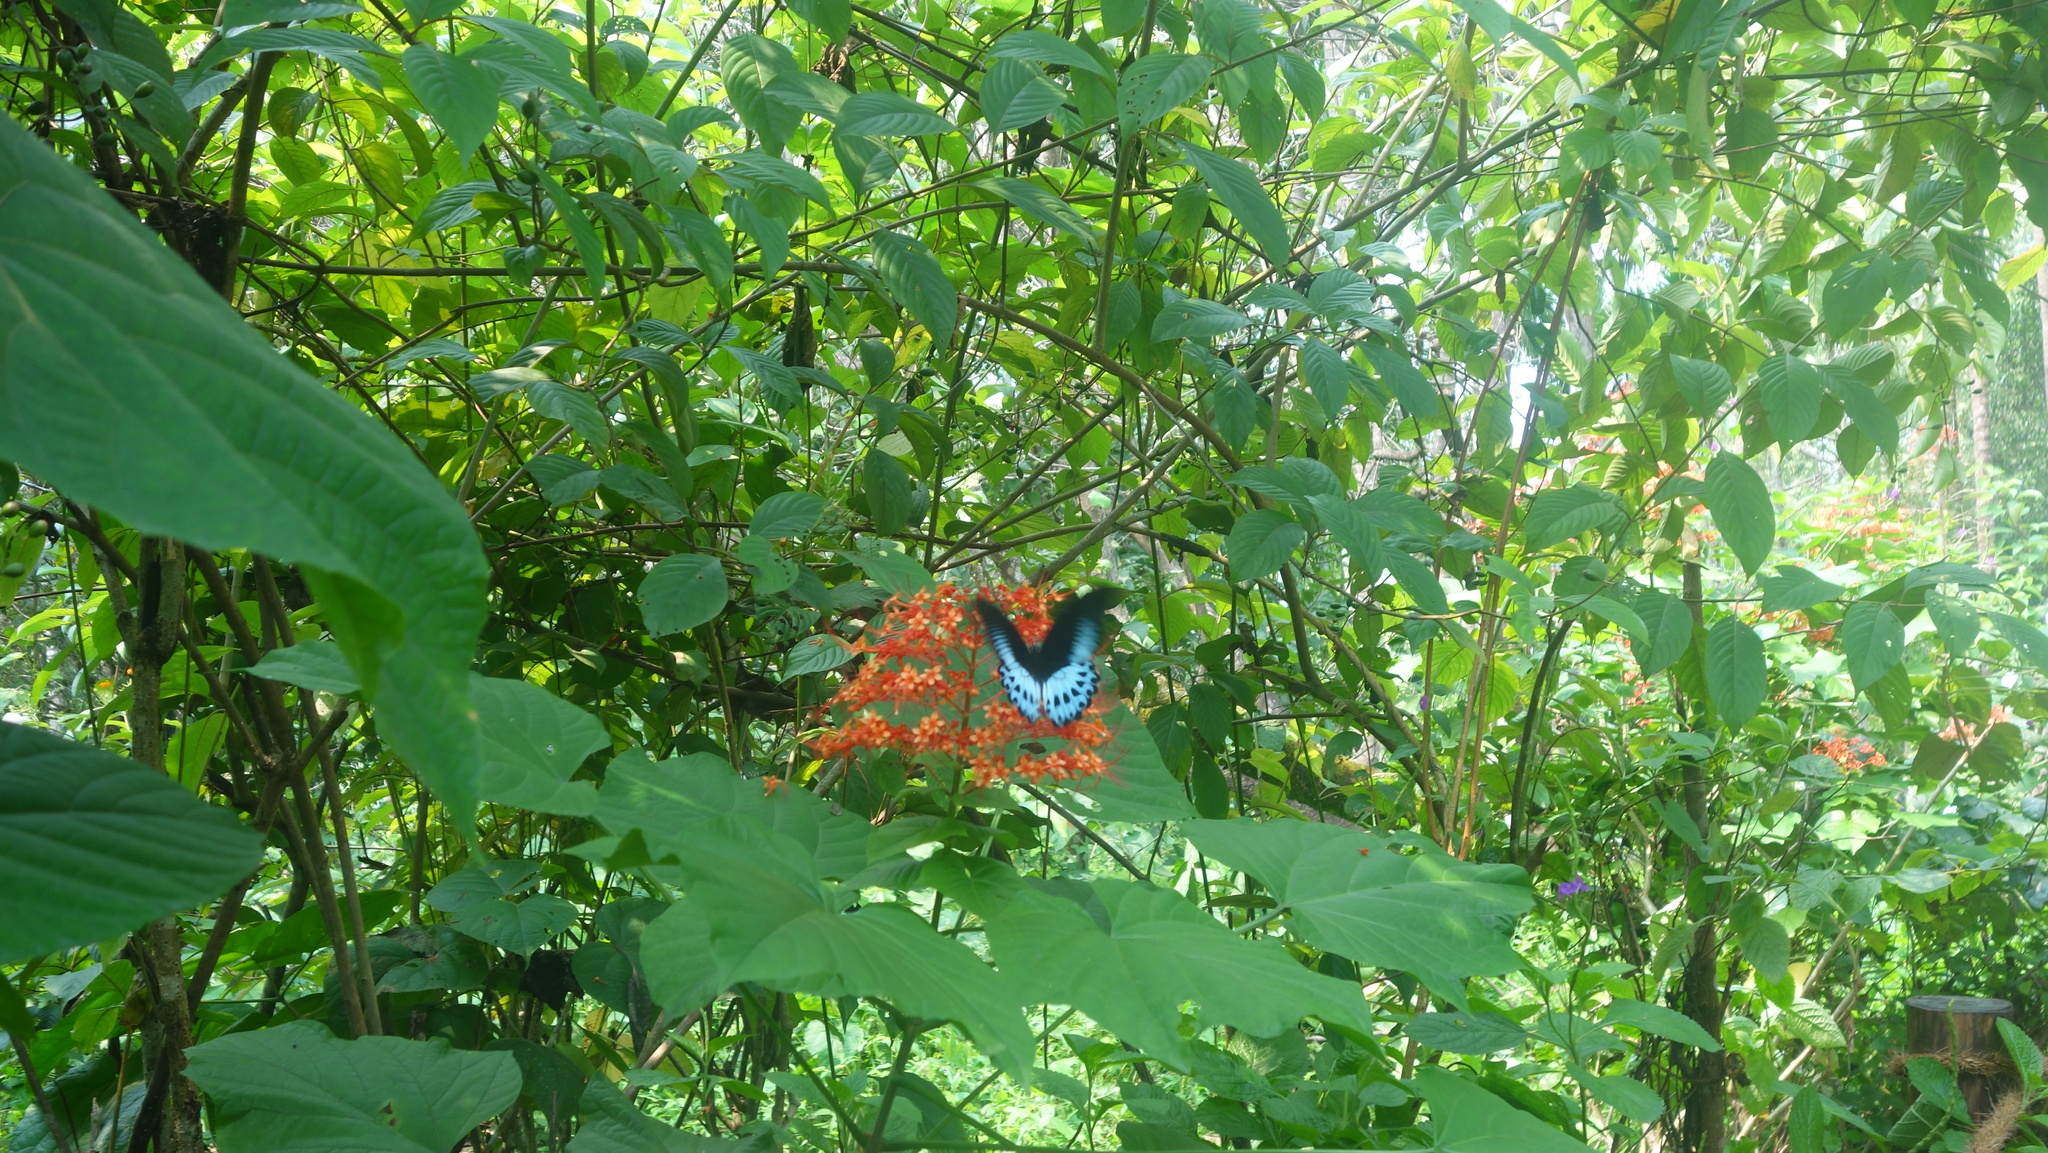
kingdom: Animalia
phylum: Arthropoda
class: Insecta
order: Lepidoptera
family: Papilionidae
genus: Papilio
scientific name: Papilio memnon
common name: Great mormon
